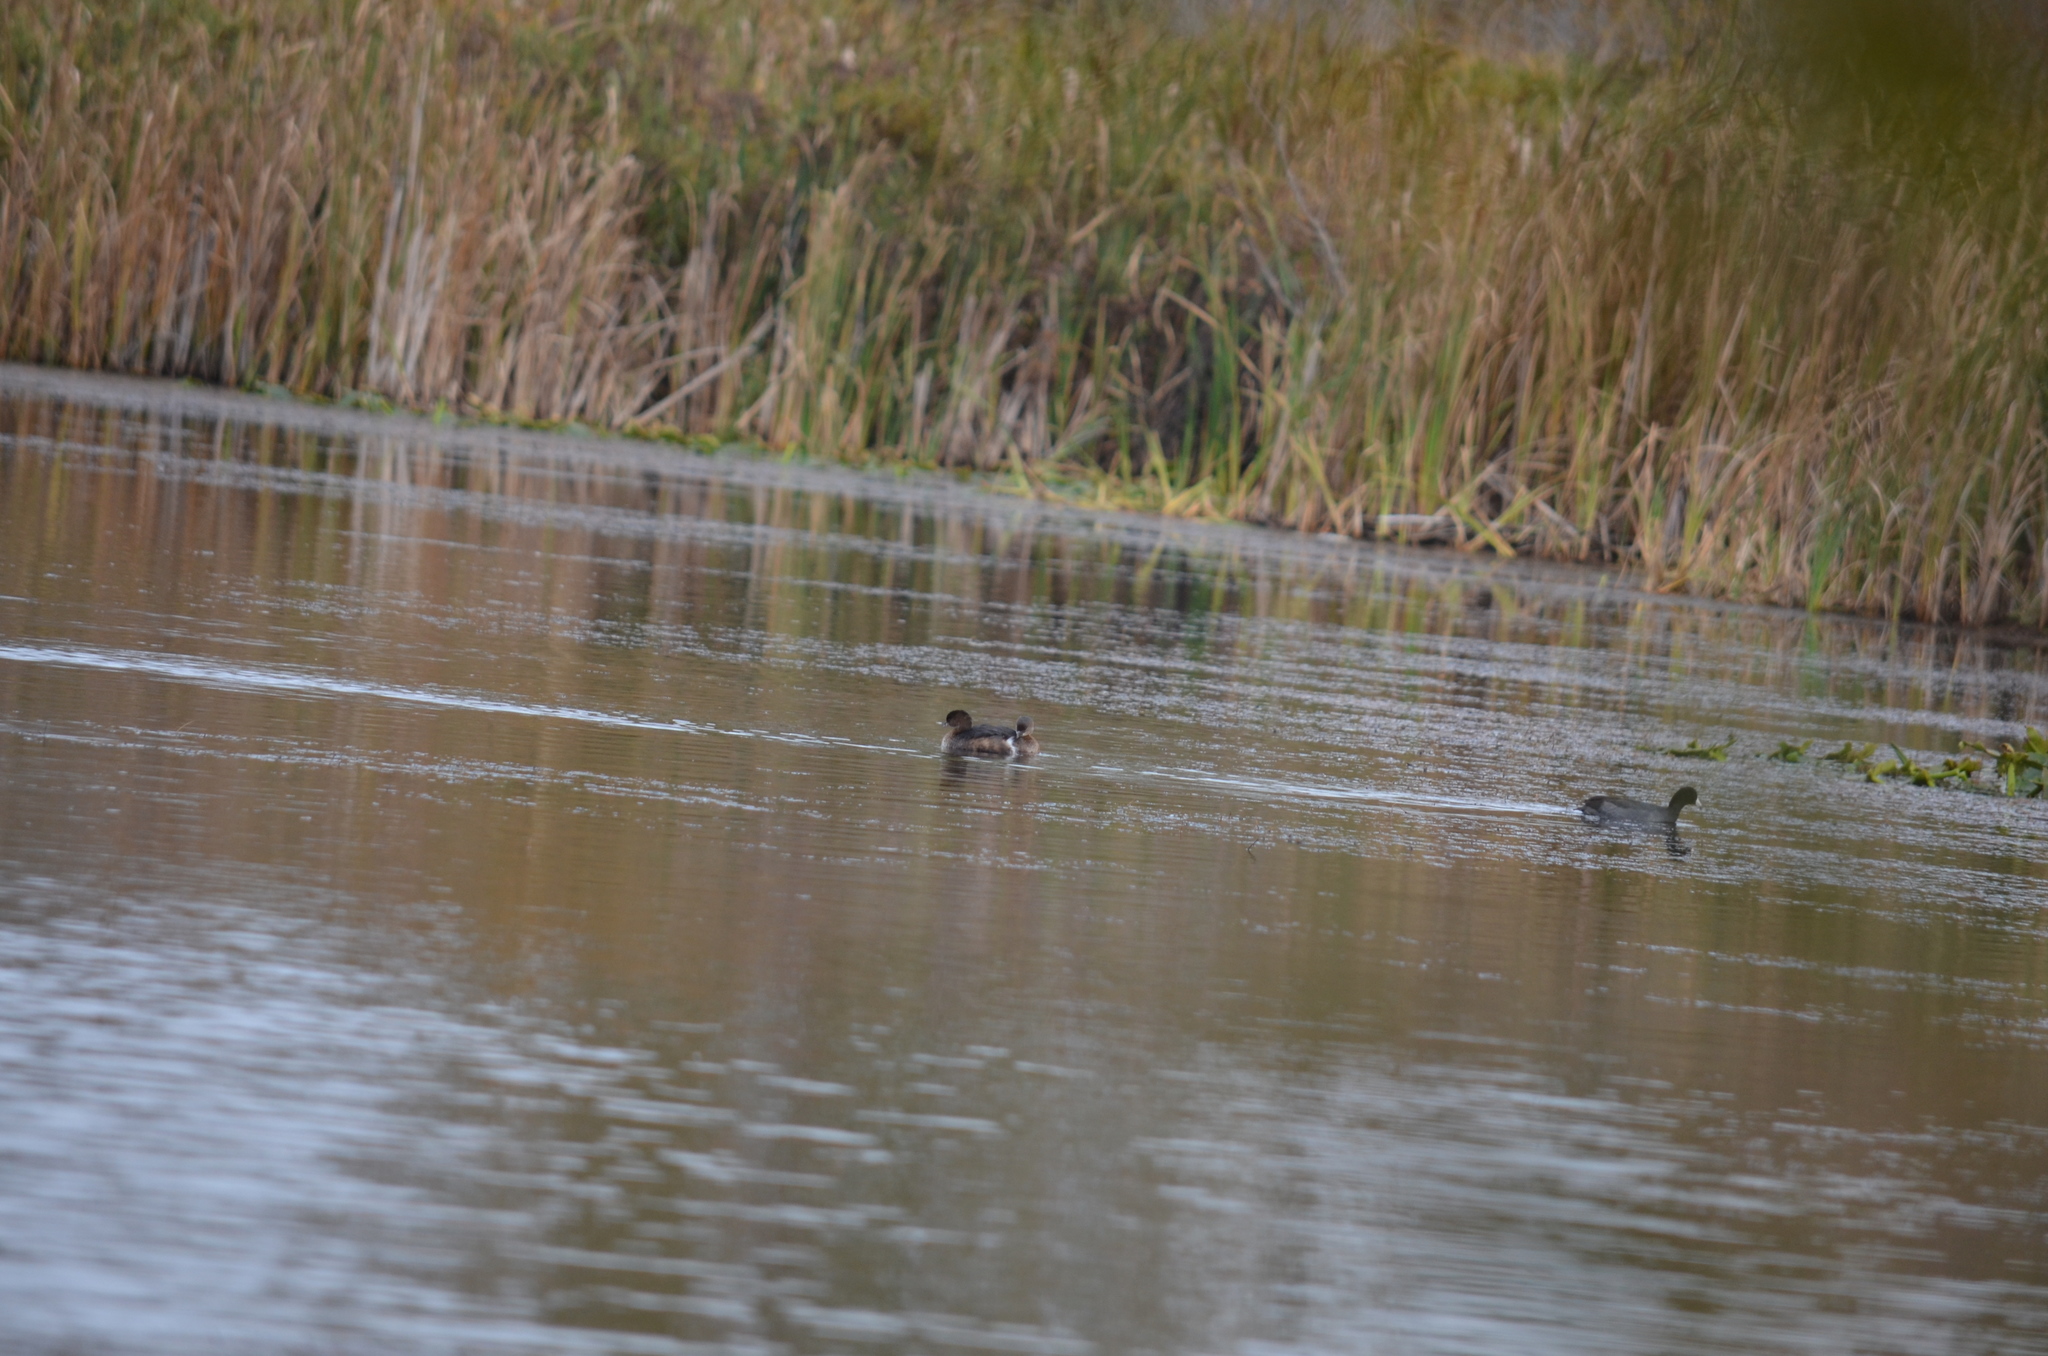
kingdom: Animalia
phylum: Chordata
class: Aves
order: Podicipediformes
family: Podicipedidae
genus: Podilymbus
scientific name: Podilymbus podiceps
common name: Pied-billed grebe
